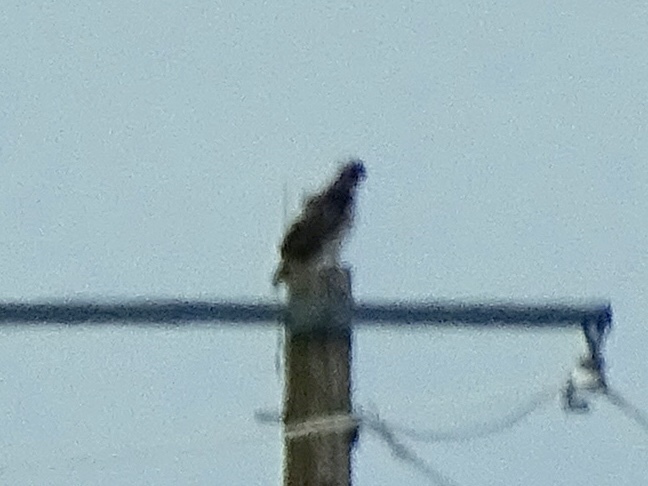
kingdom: Animalia
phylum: Chordata
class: Aves
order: Accipitriformes
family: Accipitridae
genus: Buteo
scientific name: Buteo jamaicensis
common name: Red-tailed hawk
